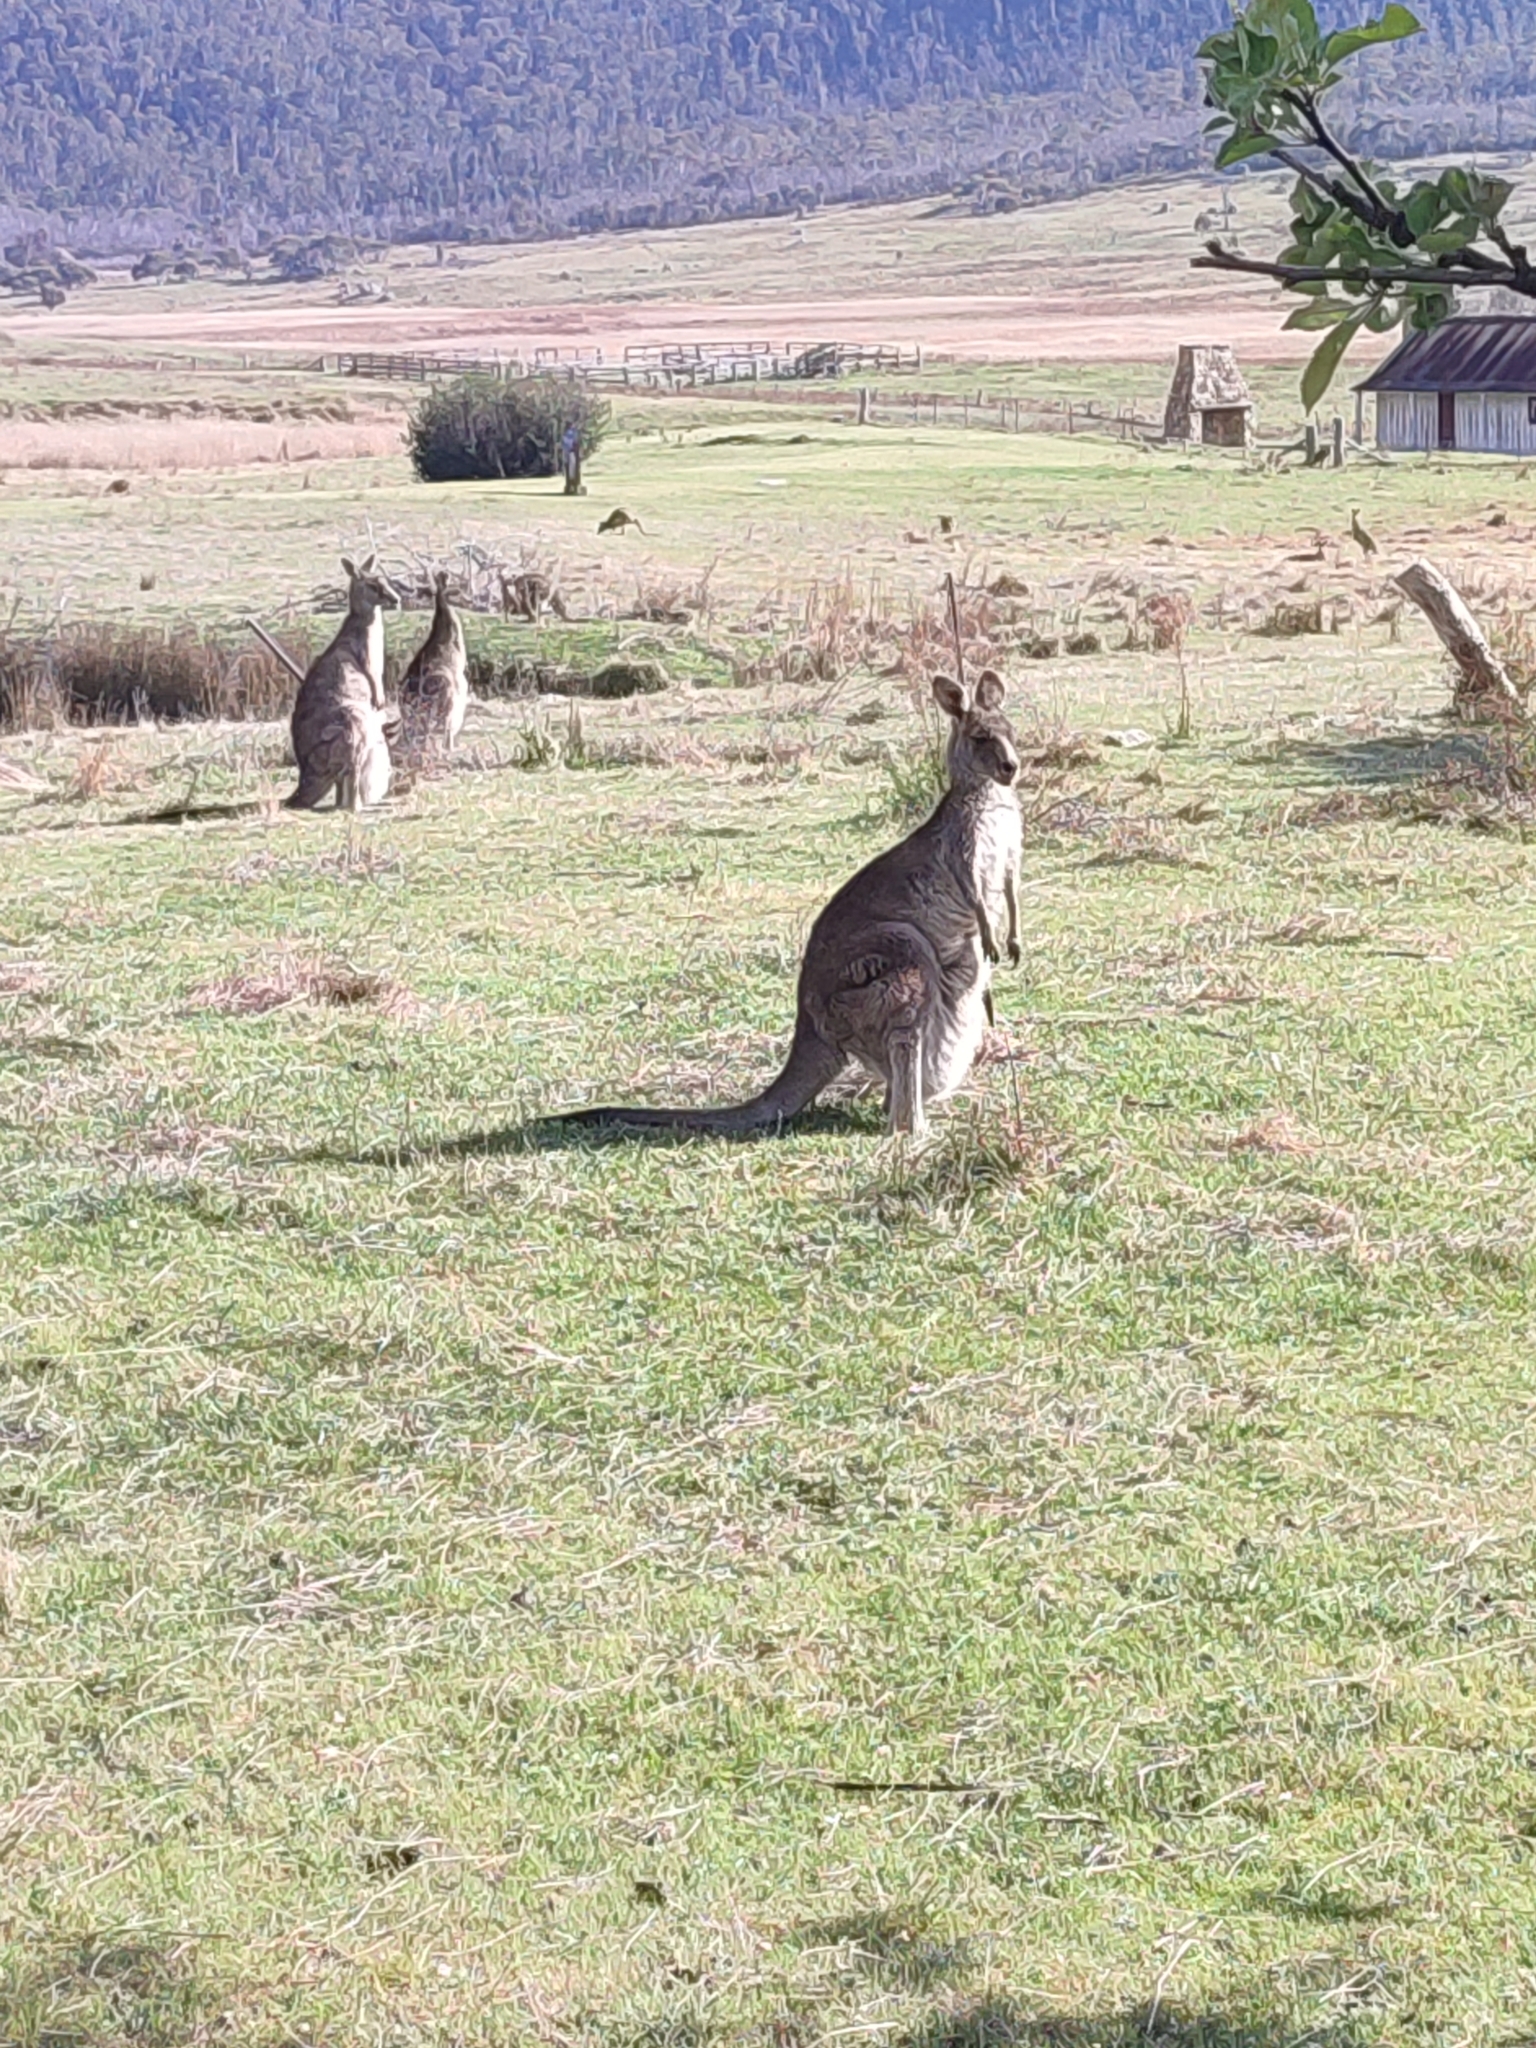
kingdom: Animalia
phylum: Chordata
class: Mammalia
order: Diprotodontia
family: Macropodidae
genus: Macropus
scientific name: Macropus giganteus
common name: Eastern grey kangaroo
